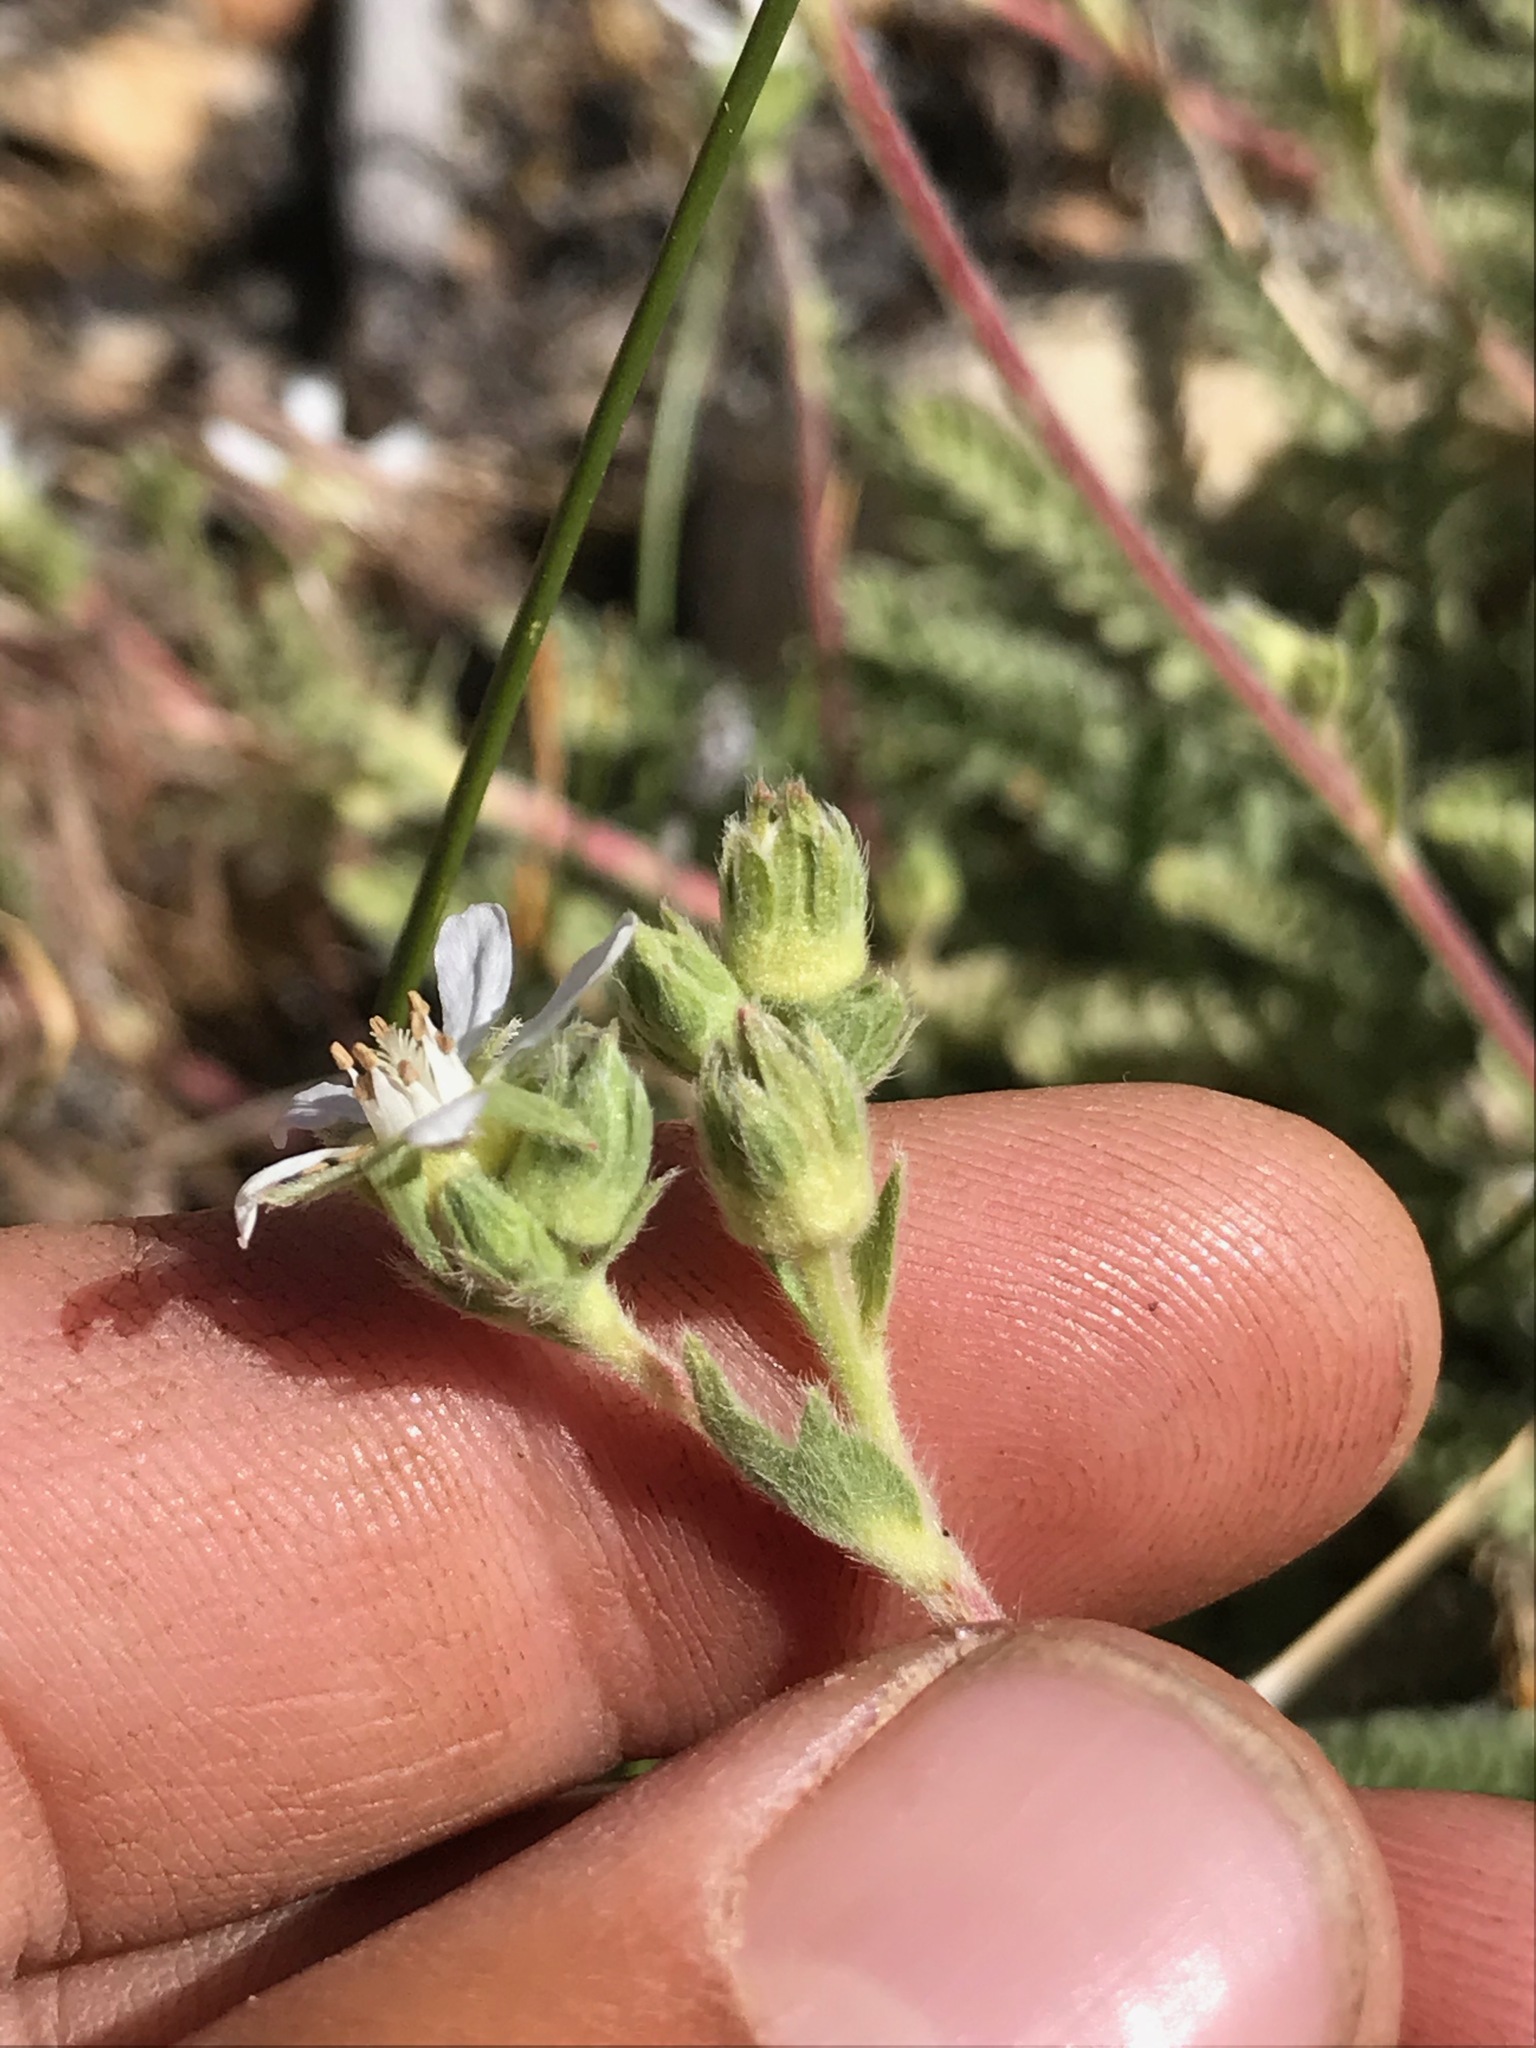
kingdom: Plantae
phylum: Tracheophyta
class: Magnoliopsida
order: Rosales
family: Rosaceae
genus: Potentilla
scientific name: Potentilla rydbergii
